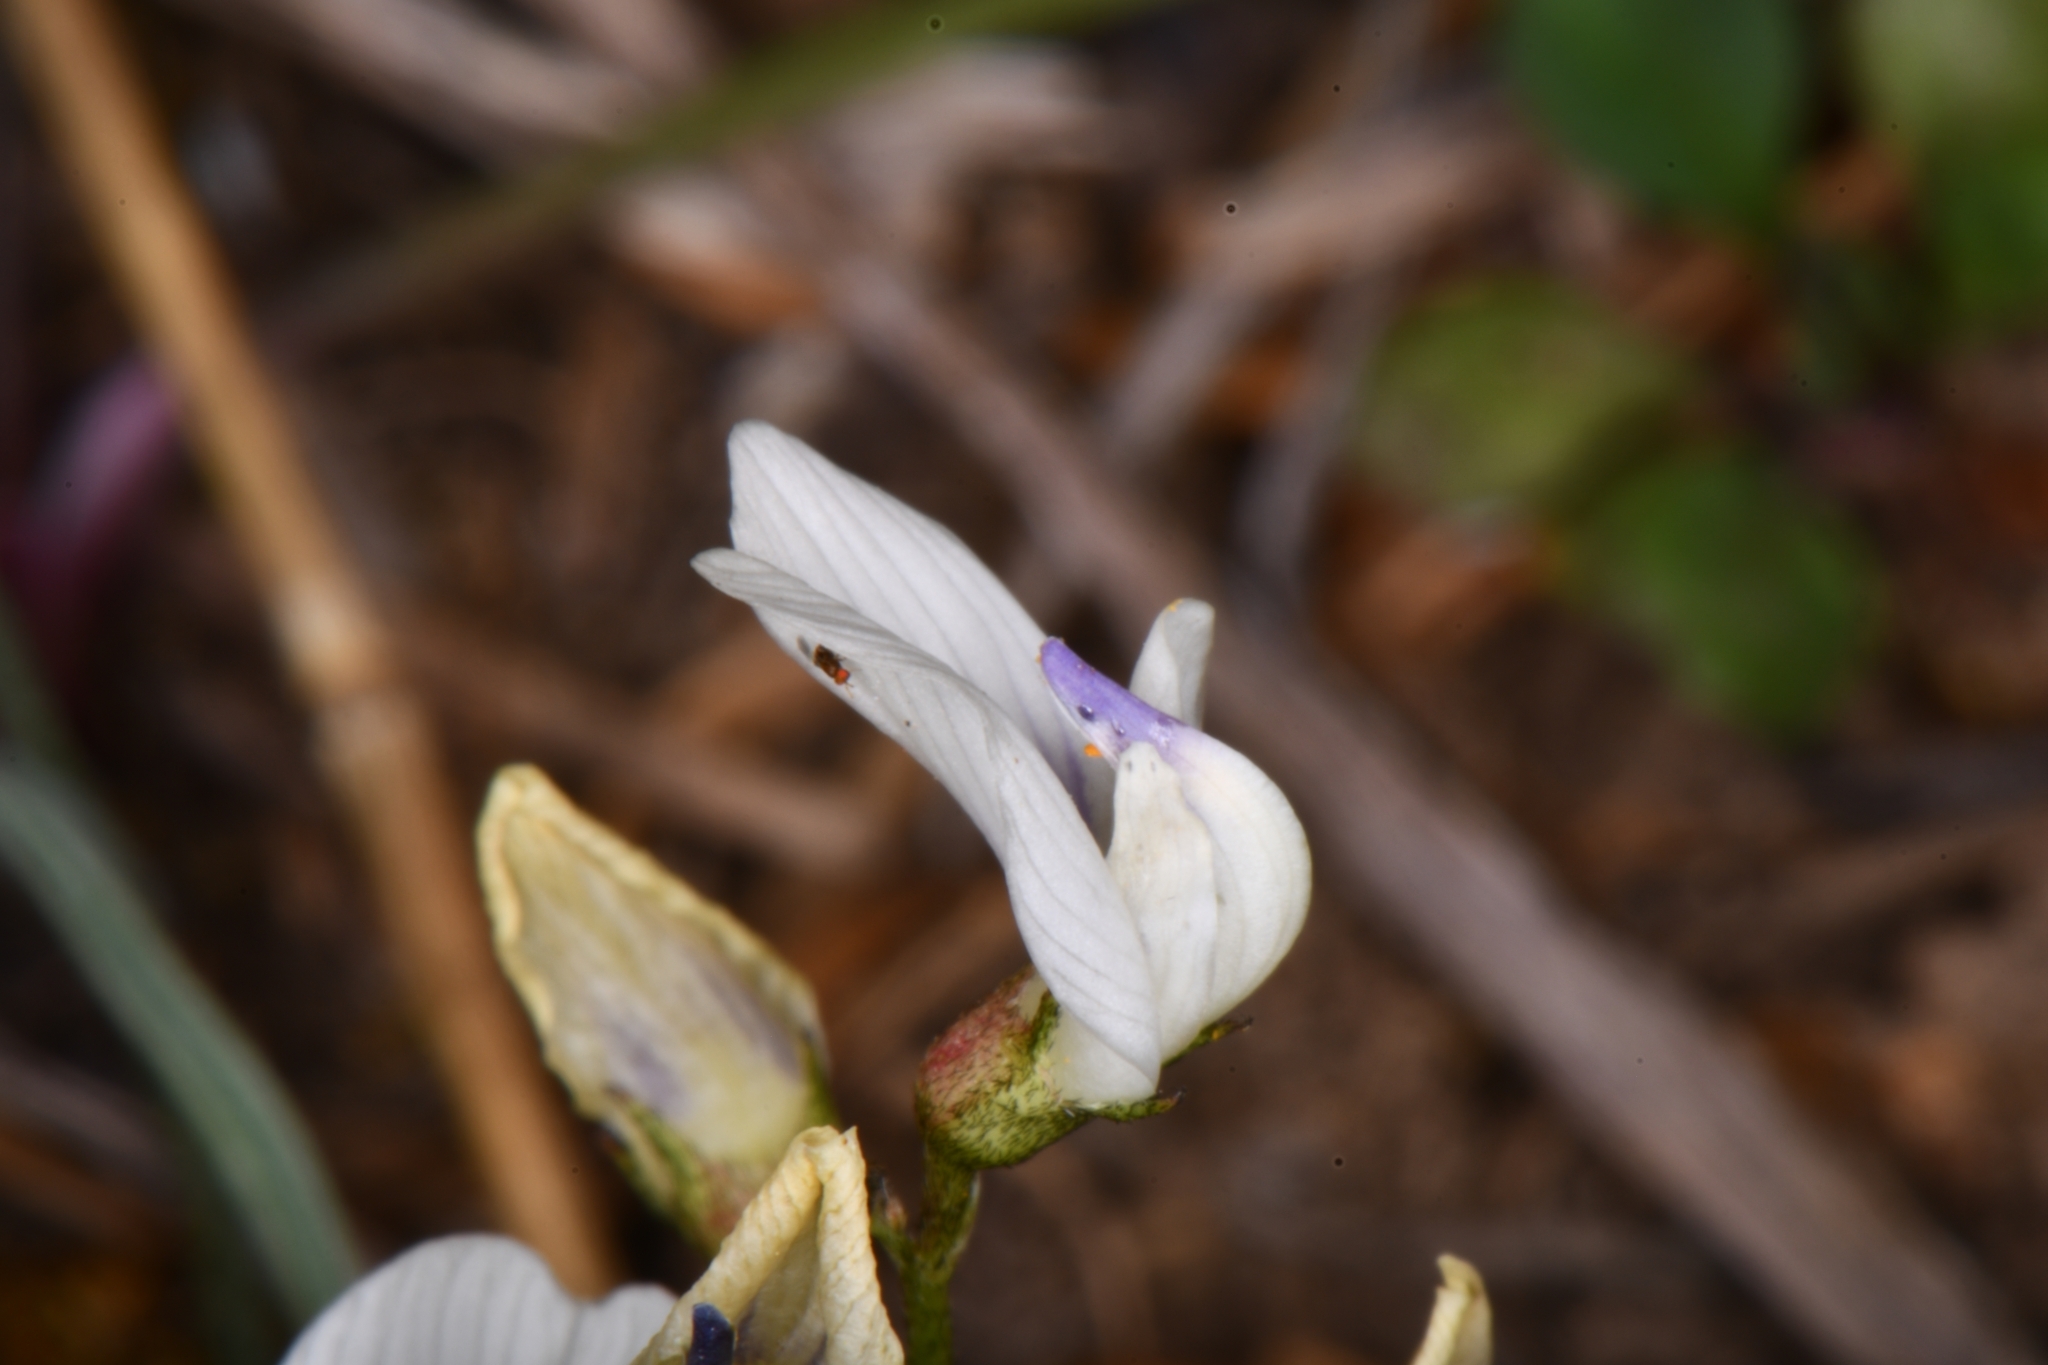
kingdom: Plantae
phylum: Tracheophyta
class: Magnoliopsida
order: Fabales
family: Fabaceae
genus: Astragalus
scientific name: Astragalus miser
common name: Timber milkvetch
